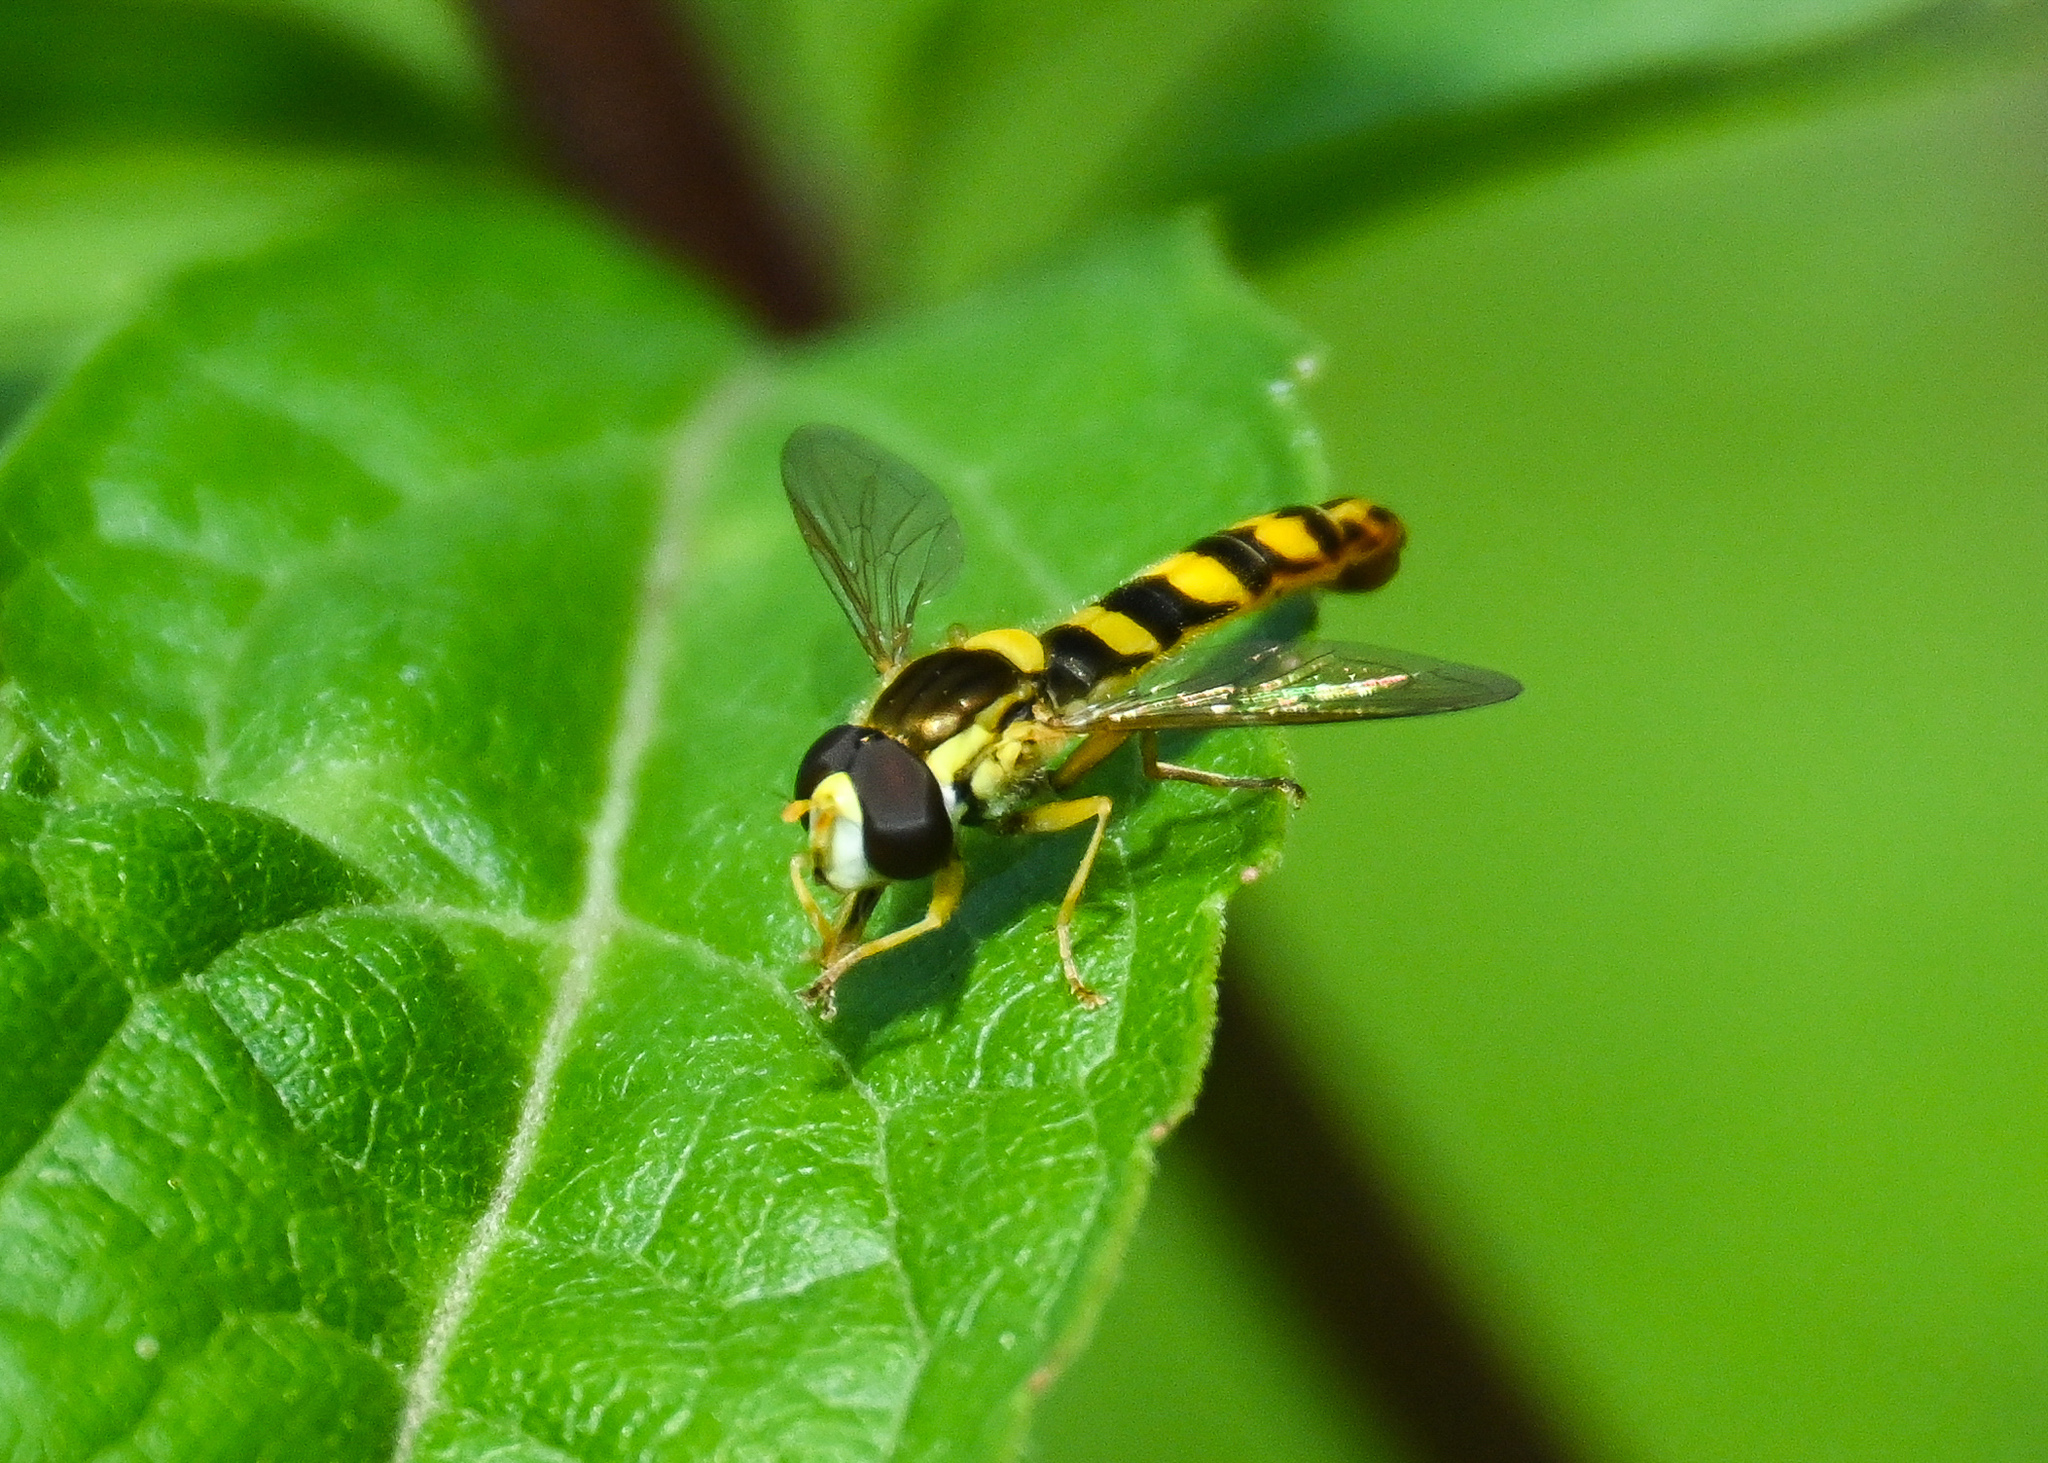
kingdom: Animalia
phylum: Arthropoda
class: Insecta
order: Diptera
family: Syrphidae
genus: Sphaerophoria
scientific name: Sphaerophoria scripta
